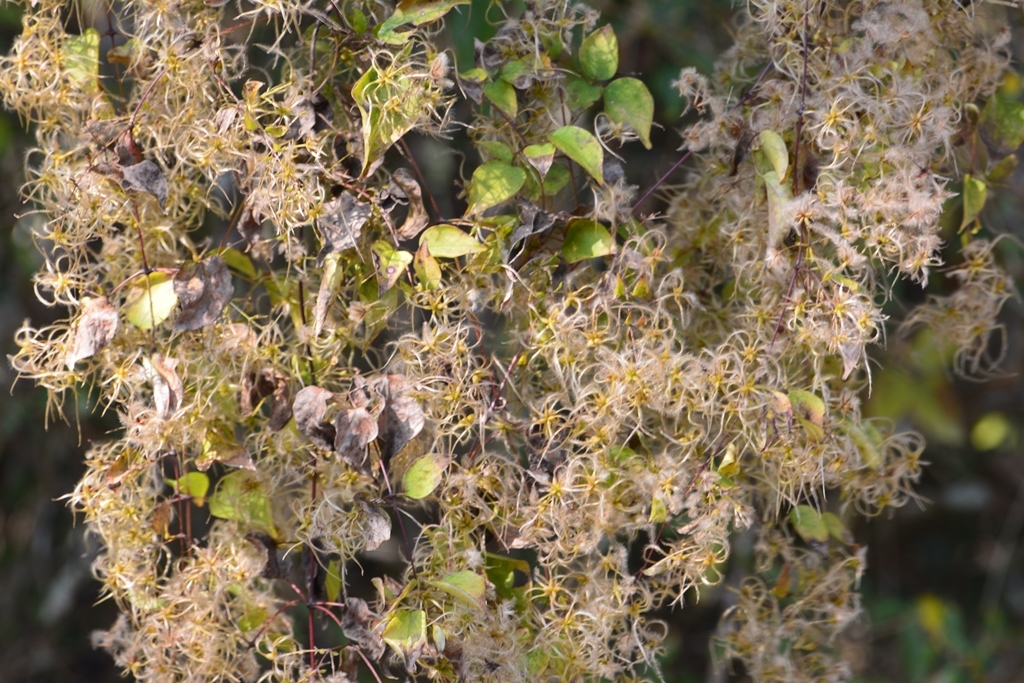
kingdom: Plantae
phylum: Tracheophyta
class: Magnoliopsida
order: Ranunculales
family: Ranunculaceae
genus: Clematis
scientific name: Clematis dioica
